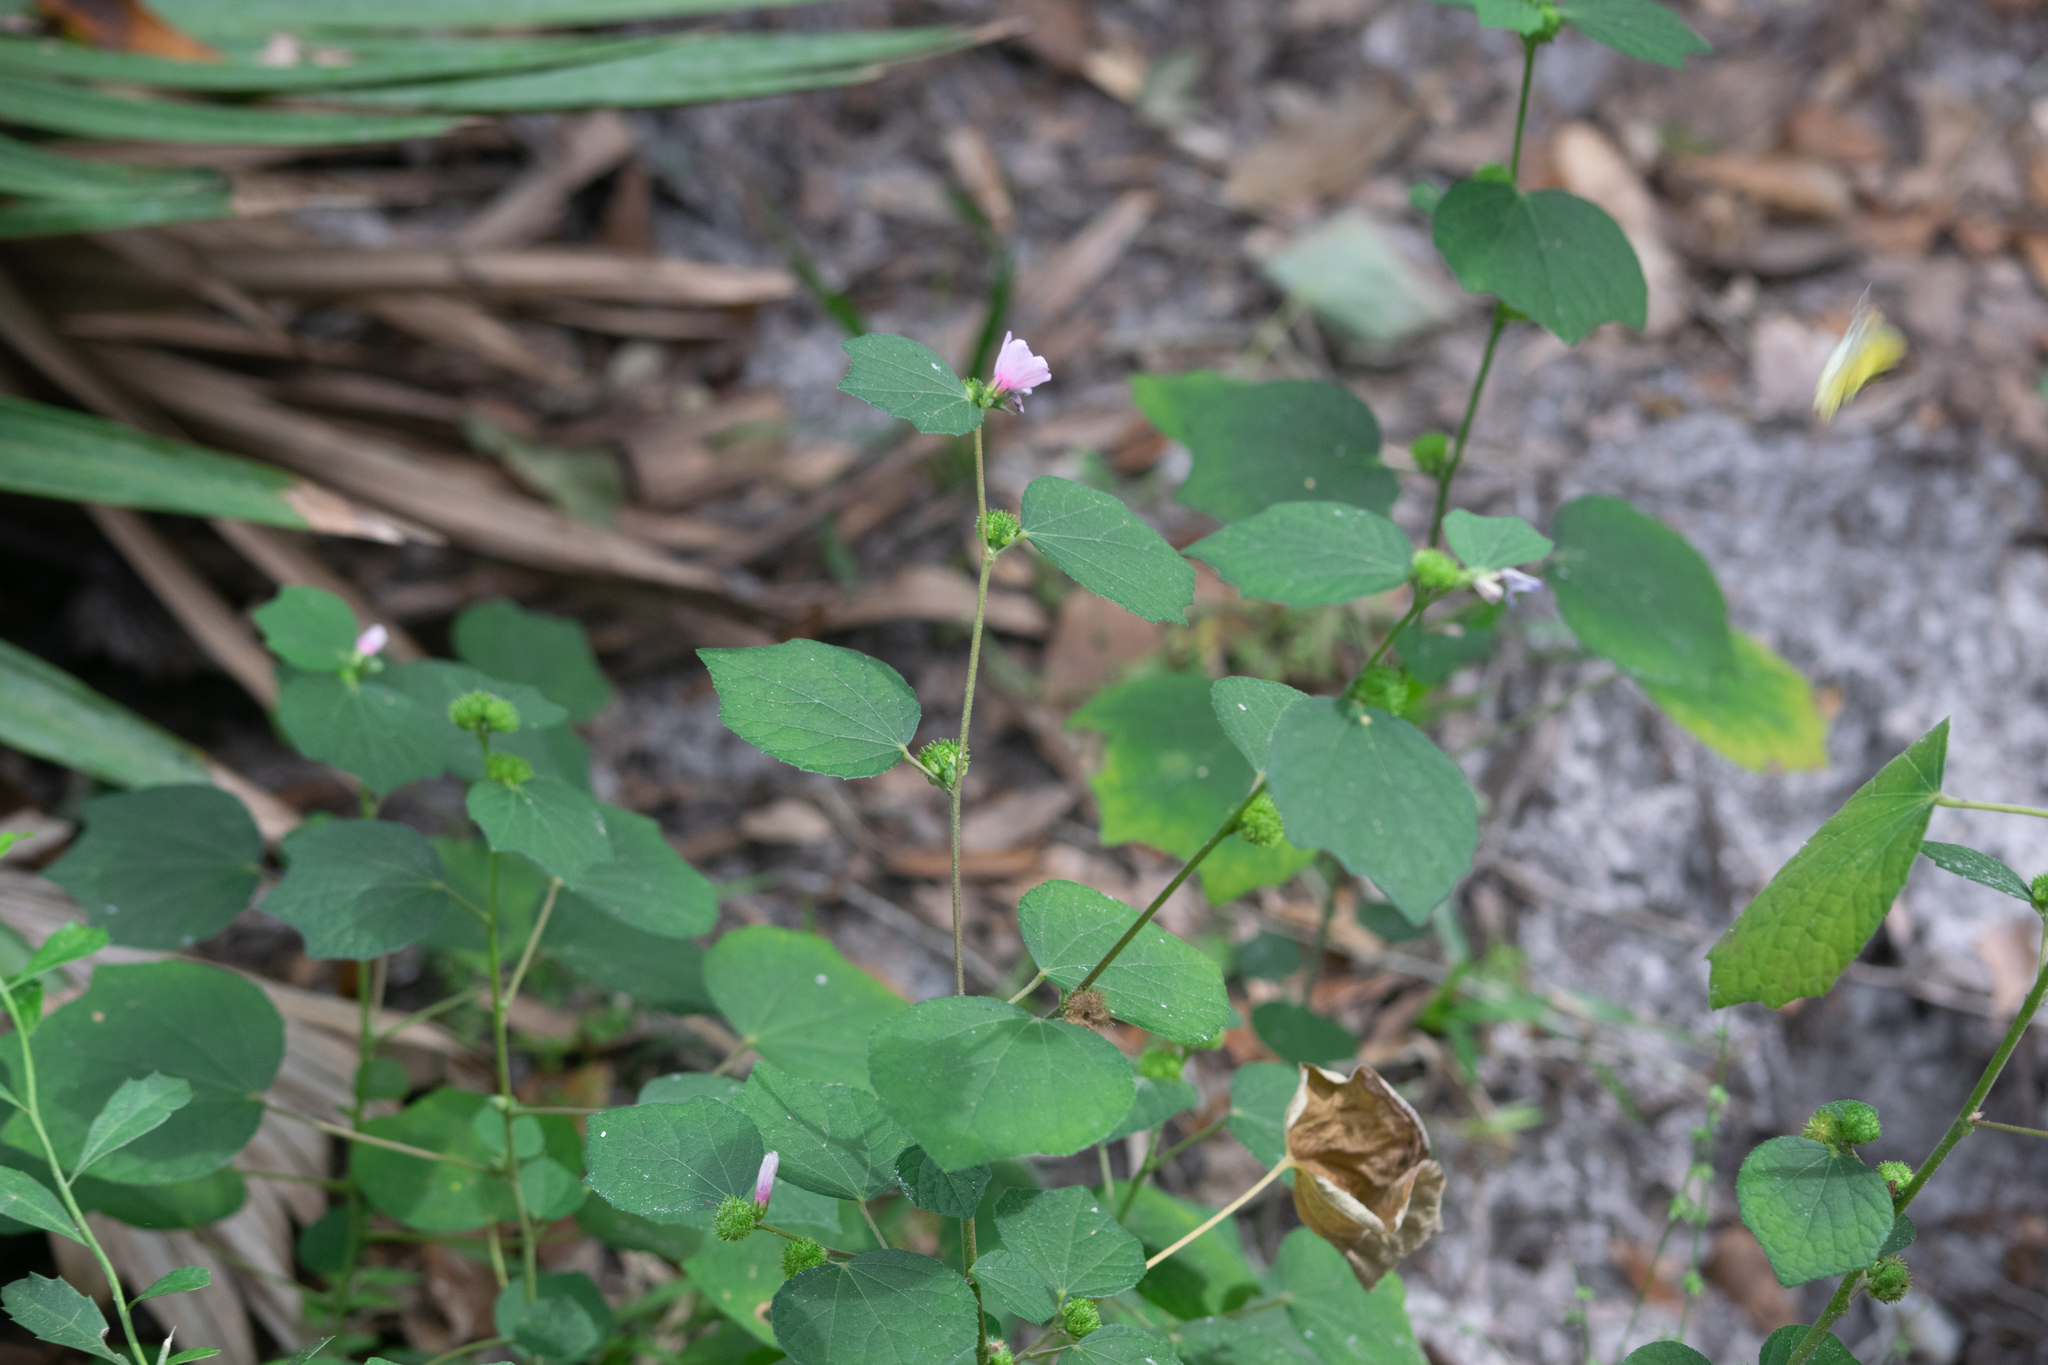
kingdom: Plantae
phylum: Tracheophyta
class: Magnoliopsida
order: Malvales
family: Malvaceae
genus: Urena
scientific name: Urena lobata
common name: Caesarweed
